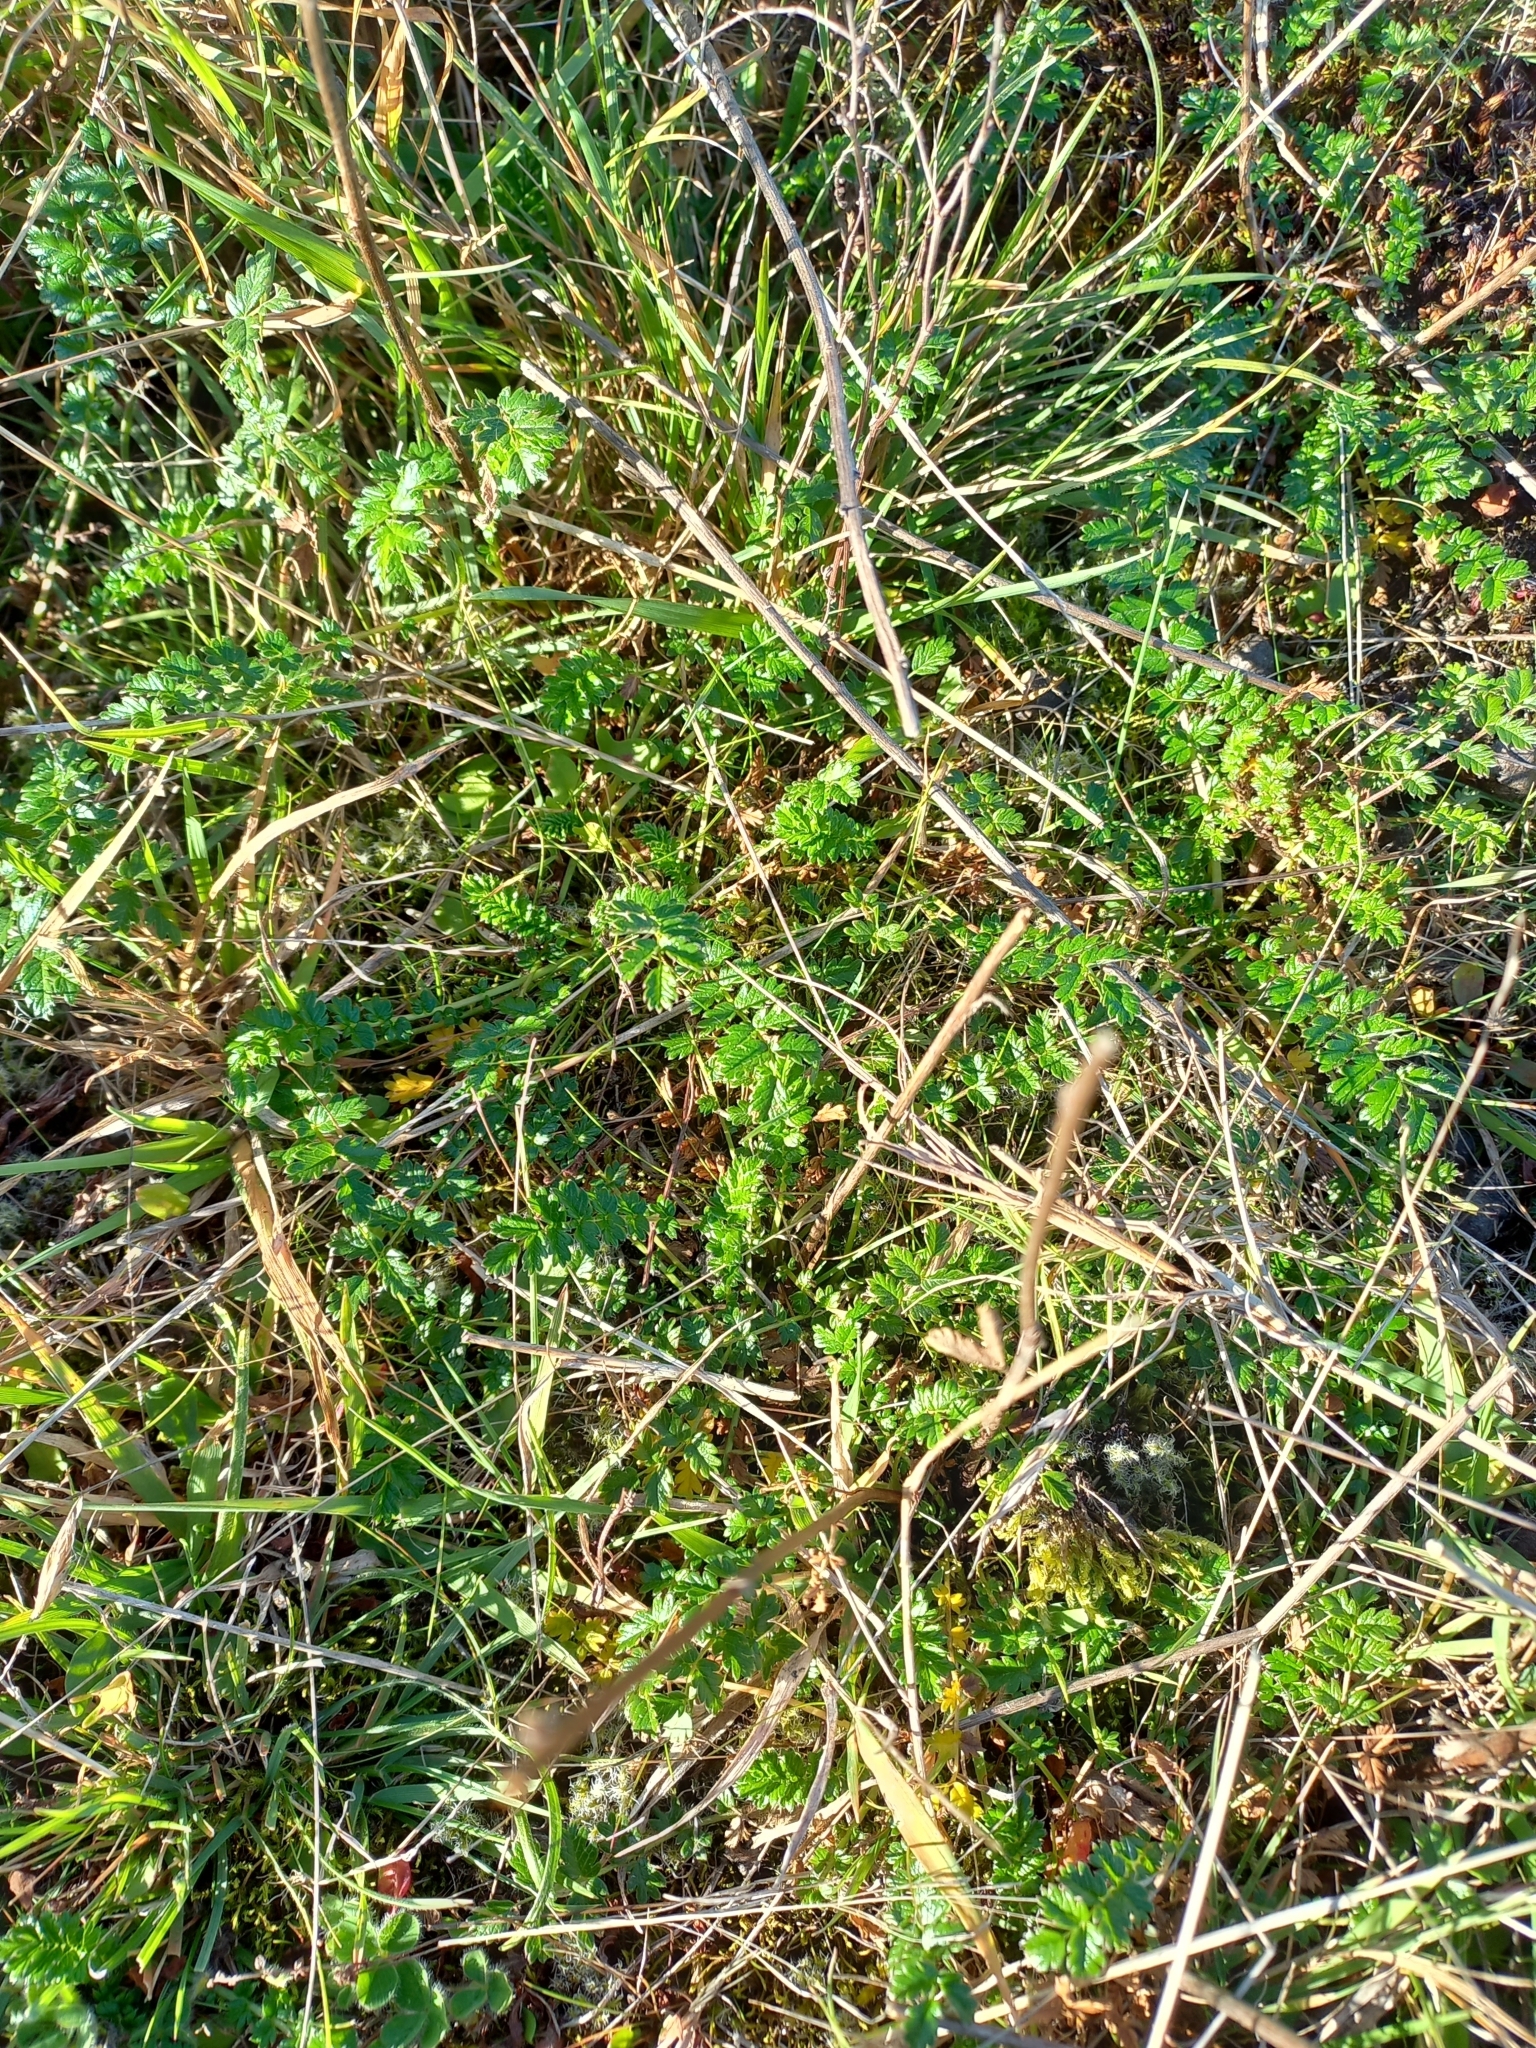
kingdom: Plantae
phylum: Tracheophyta
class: Magnoliopsida
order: Rosales
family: Rosaceae
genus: Acaena
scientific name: Acaena agnipila
